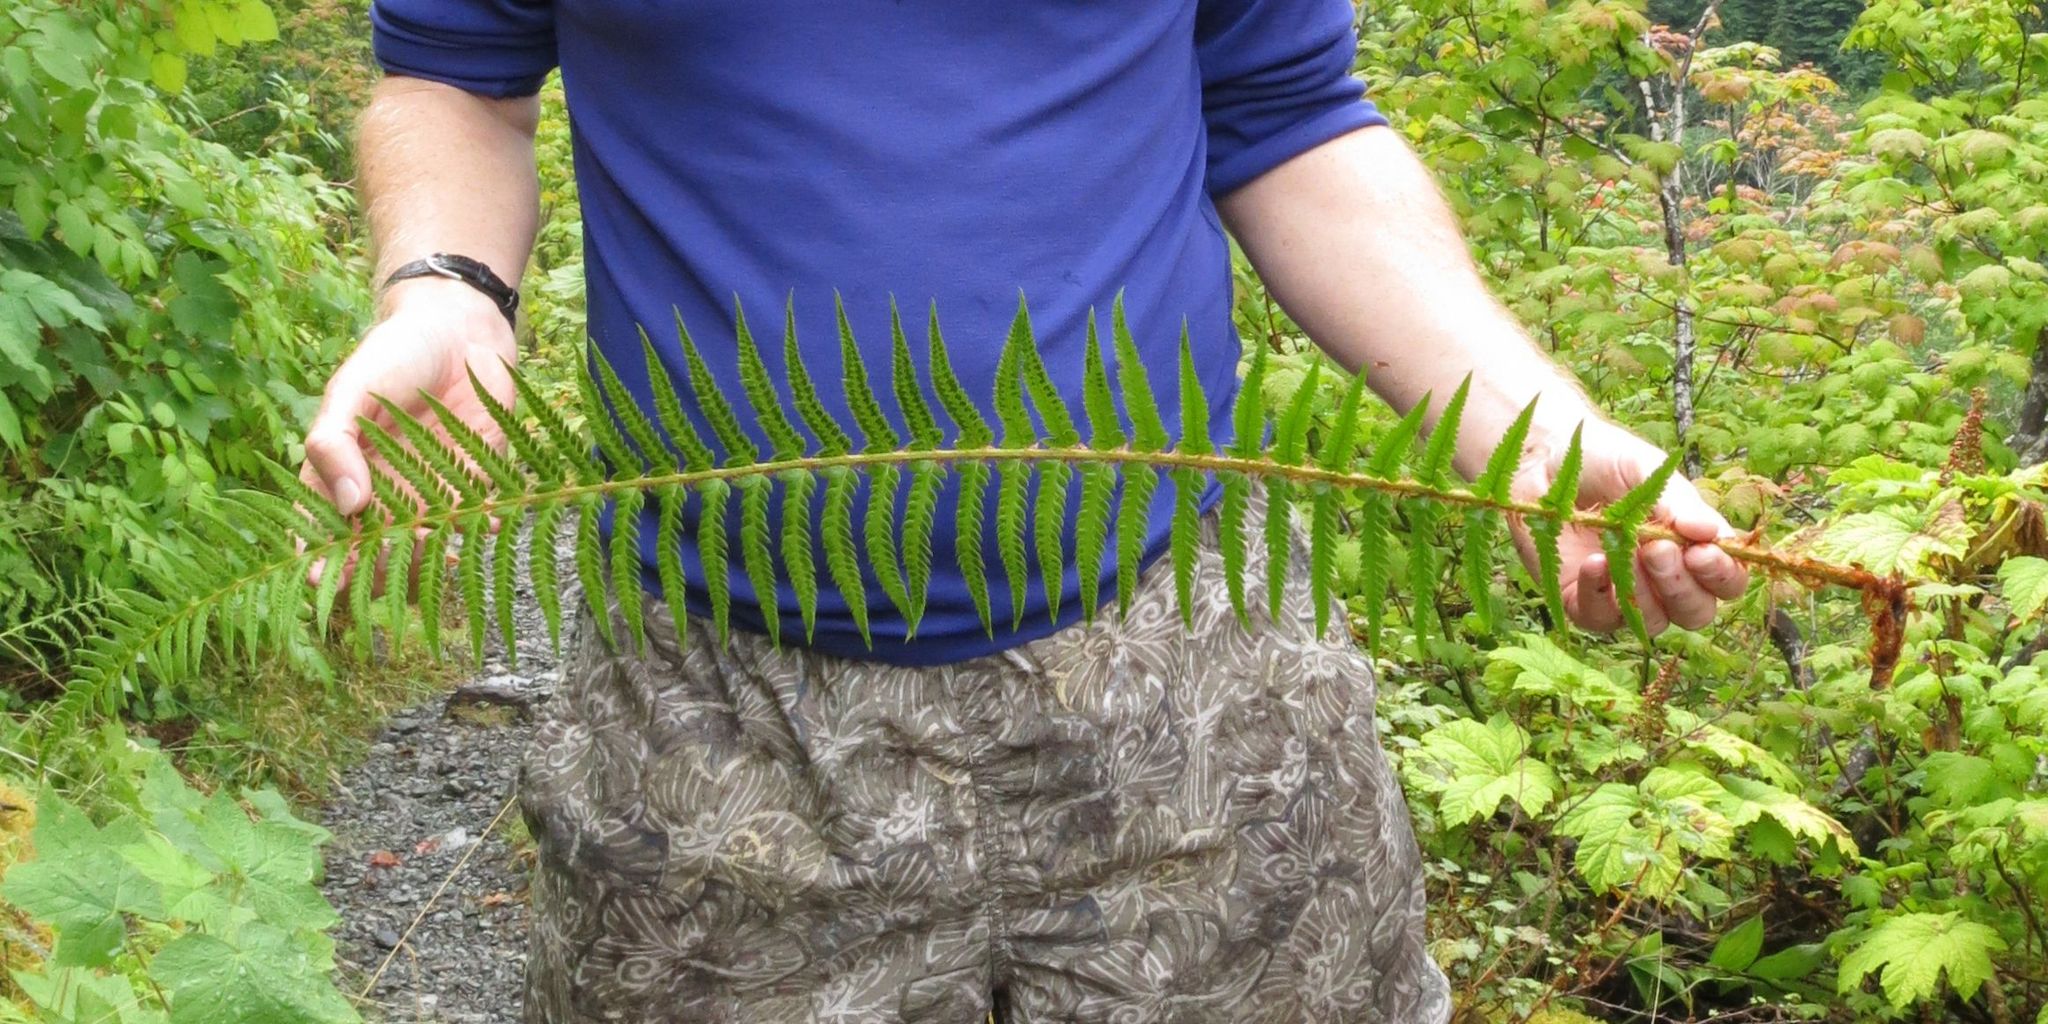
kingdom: Plantae
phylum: Tracheophyta
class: Polypodiopsida
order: Polypodiales
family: Dryopteridaceae
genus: Polystichum
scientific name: Polystichum
